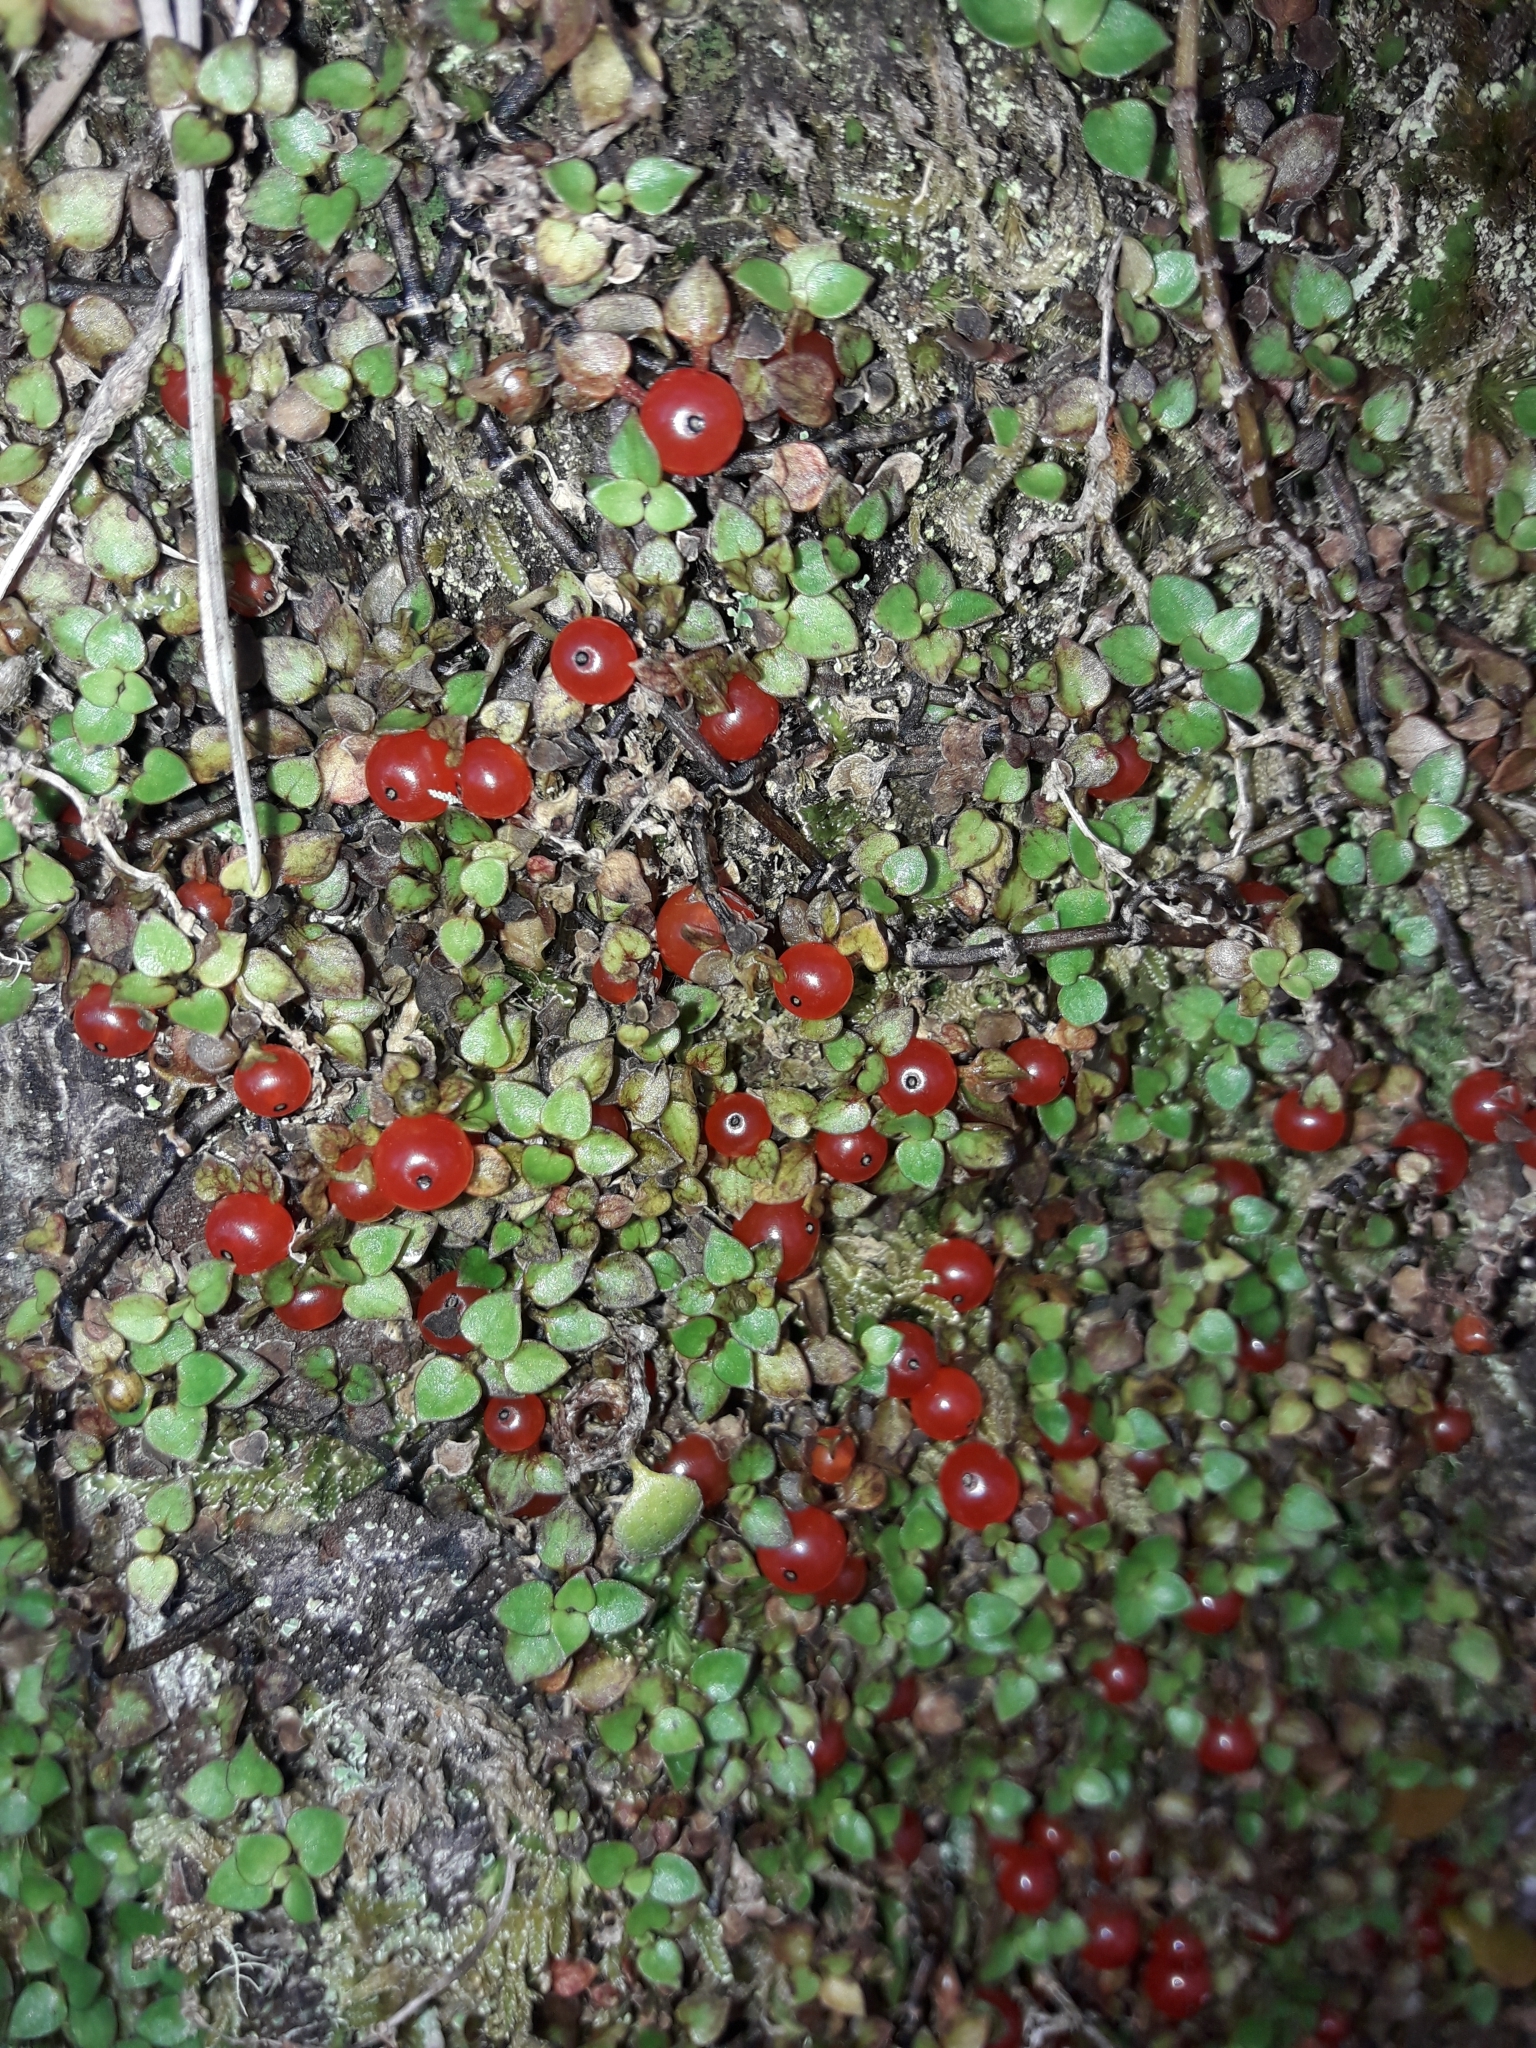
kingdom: Plantae
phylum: Tracheophyta
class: Magnoliopsida
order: Gentianales
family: Rubiaceae
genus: Nertera
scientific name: Nertera granadensis
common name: Beadplant
